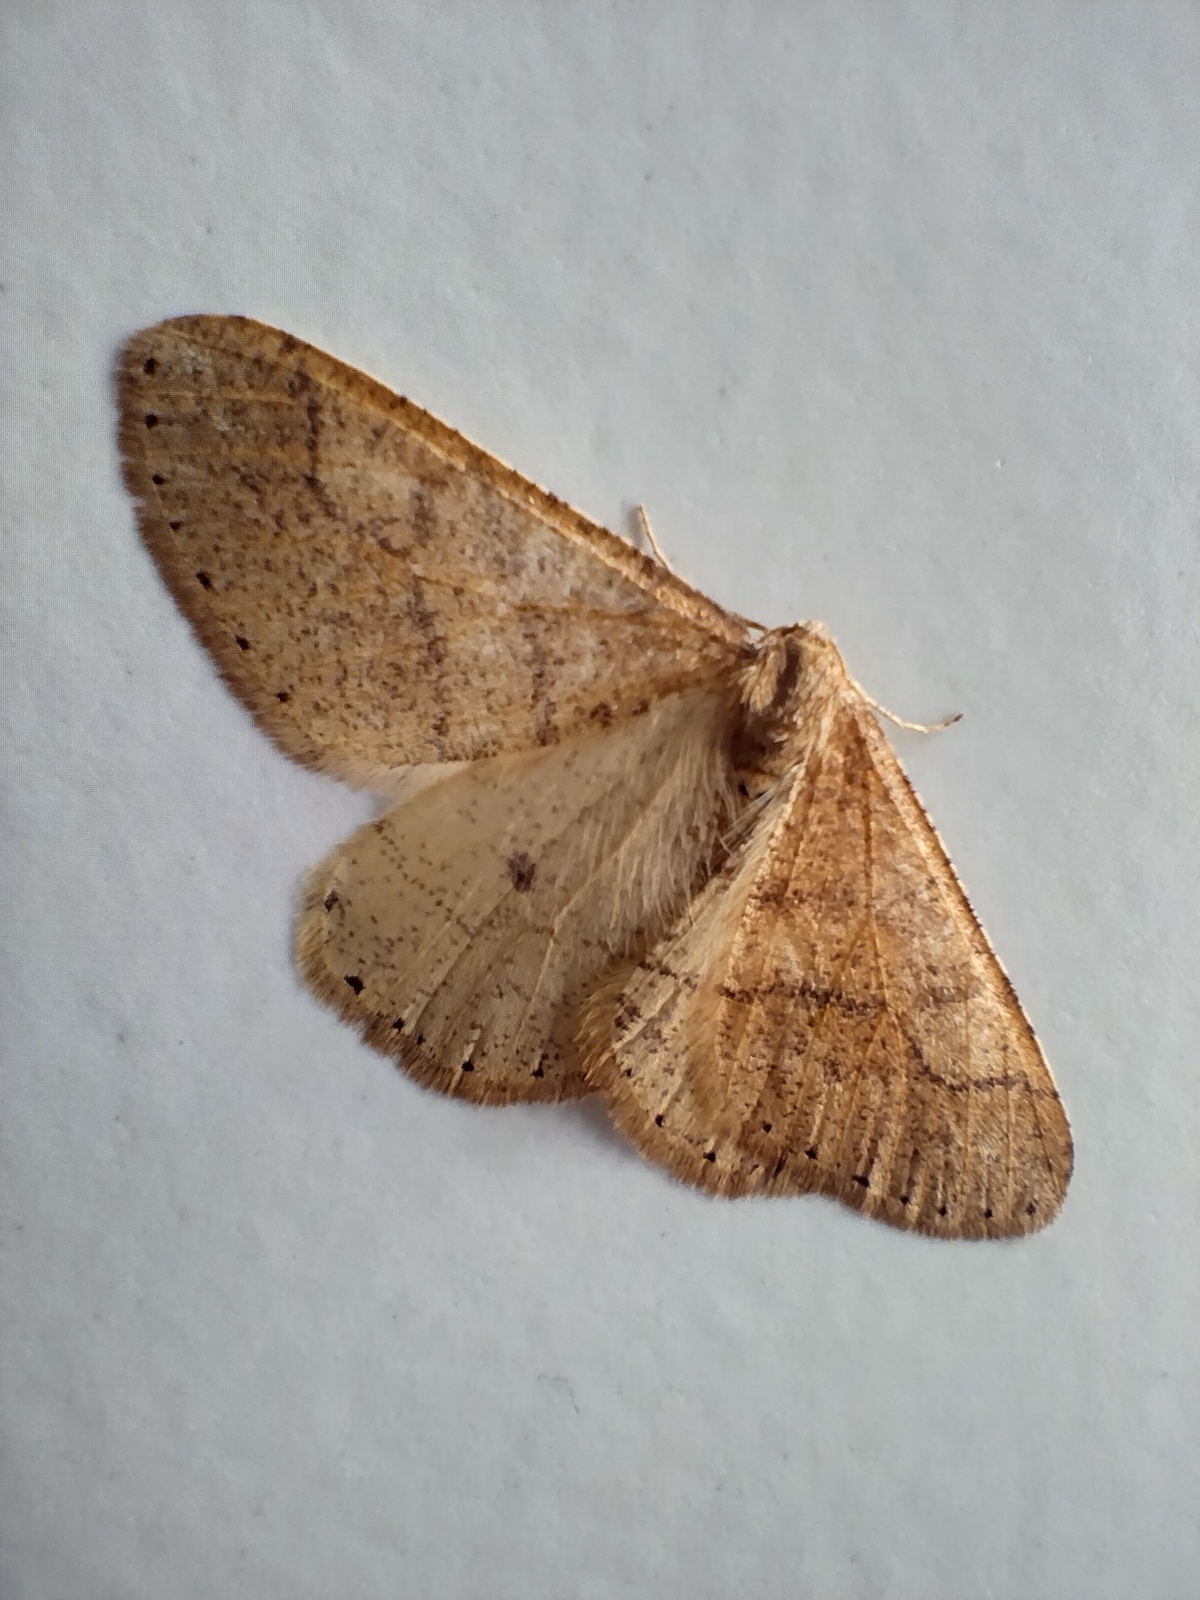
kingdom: Animalia
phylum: Arthropoda
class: Insecta
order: Lepidoptera
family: Geometridae
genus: Agriopis
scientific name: Agriopis marginaria
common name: Dotted border
